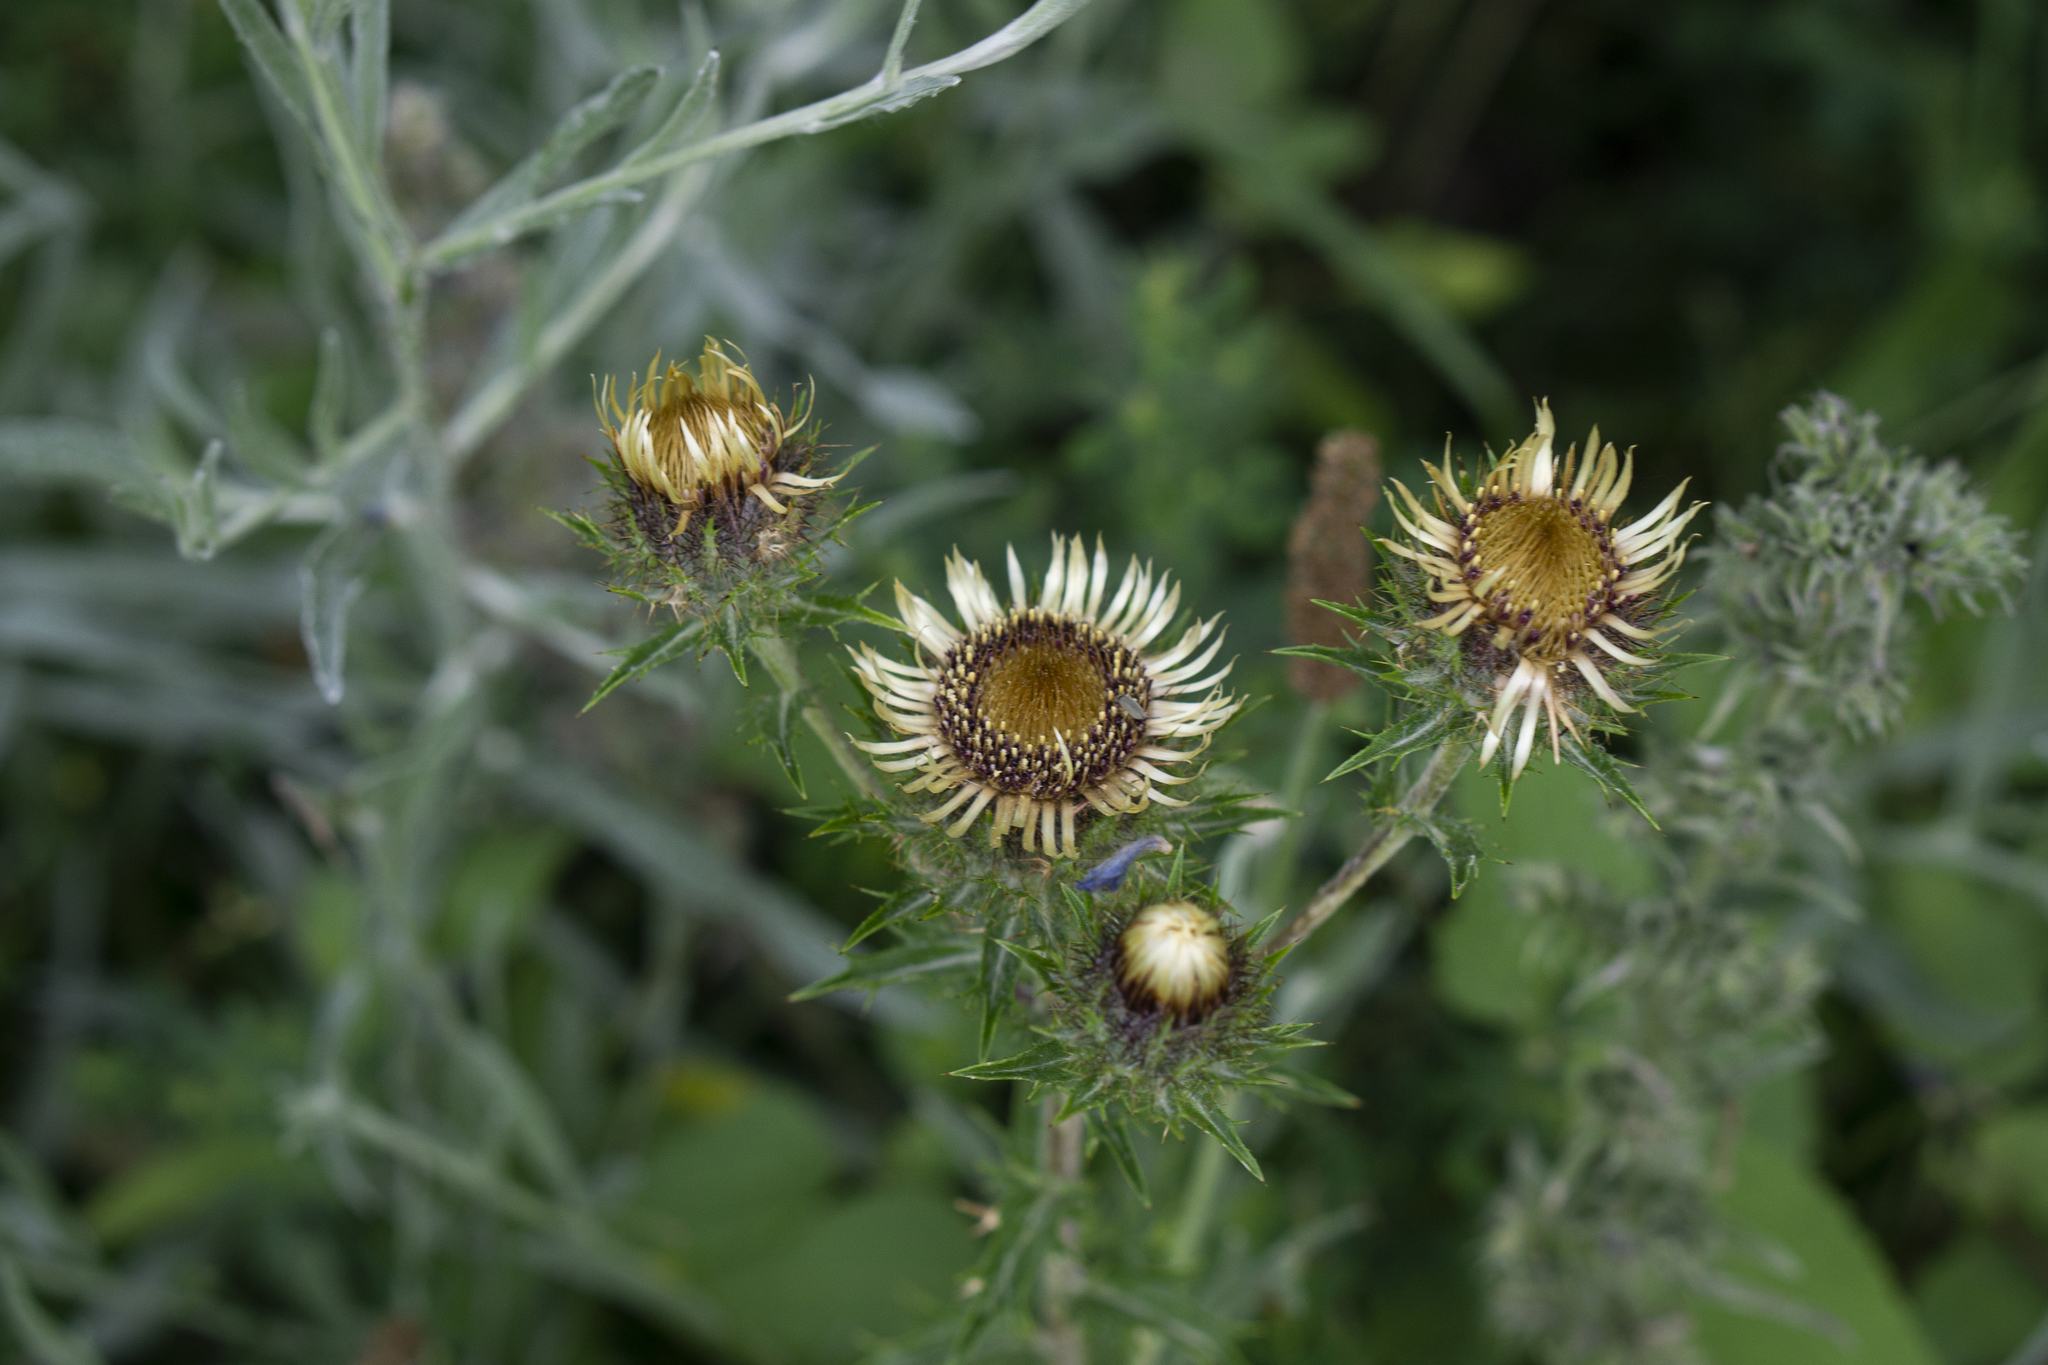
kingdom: Plantae
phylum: Tracheophyta
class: Magnoliopsida
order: Asterales
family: Asteraceae
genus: Carlina
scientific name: Carlina vulgaris
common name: Carline thistle
